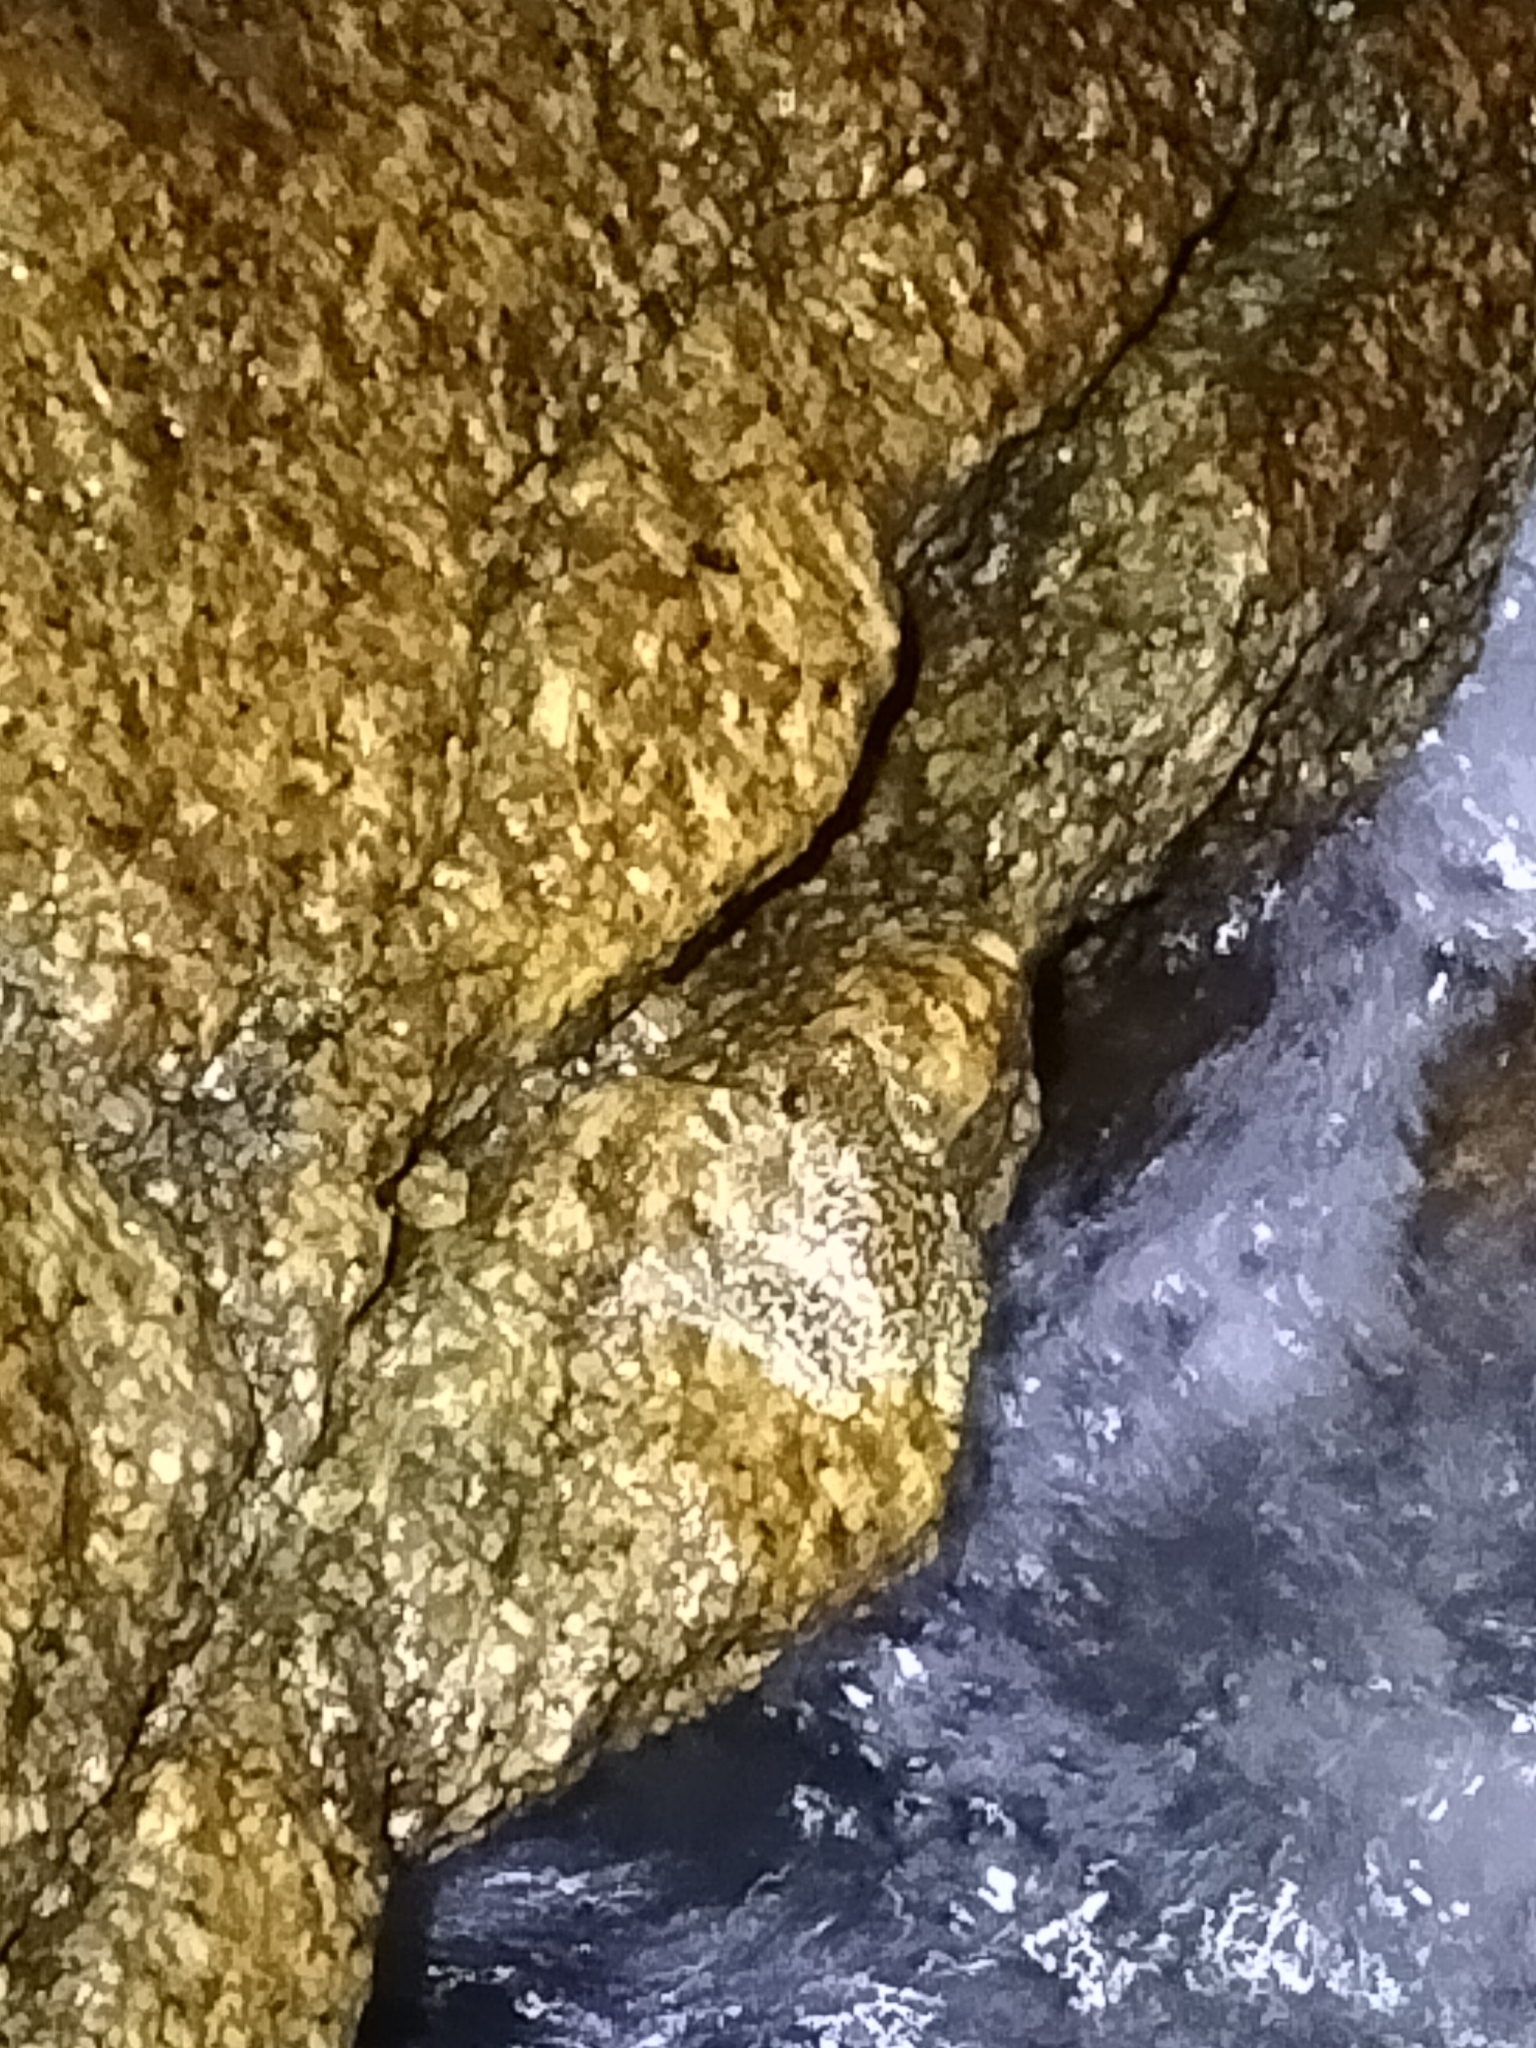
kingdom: Animalia
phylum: Chordata
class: Amphibia
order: Anura
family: Pelodryadidae
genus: Ranoidea
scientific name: Ranoidea nannotis
